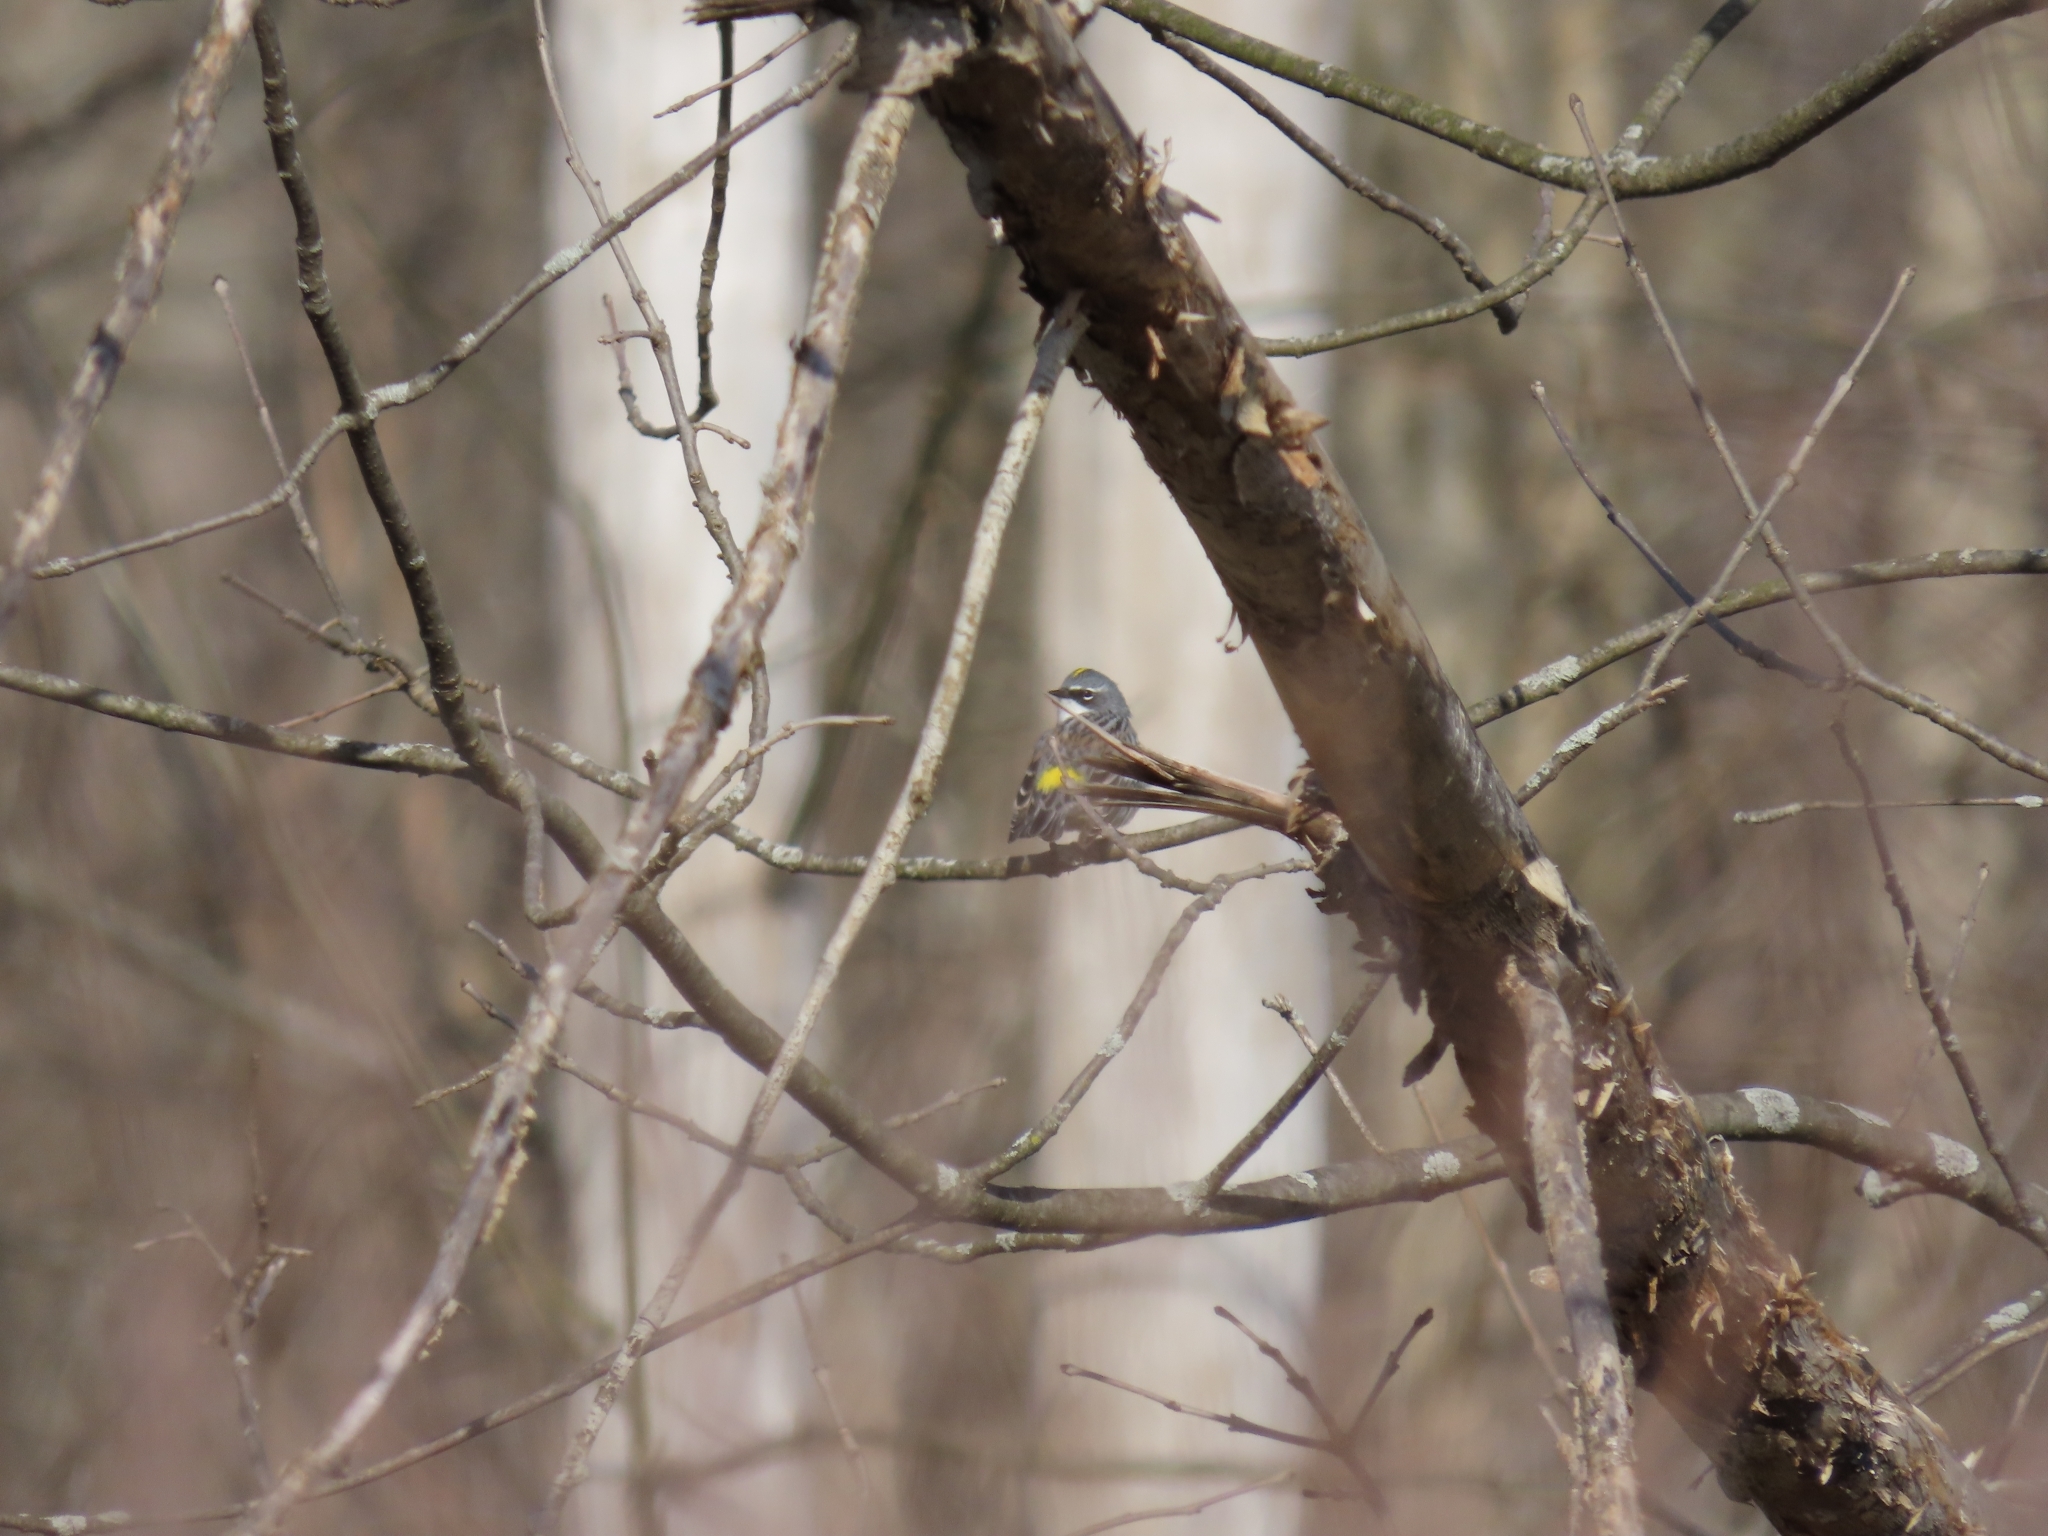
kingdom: Animalia
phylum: Chordata
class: Aves
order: Passeriformes
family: Parulidae
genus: Setophaga
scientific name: Setophaga coronata
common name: Myrtle warbler
